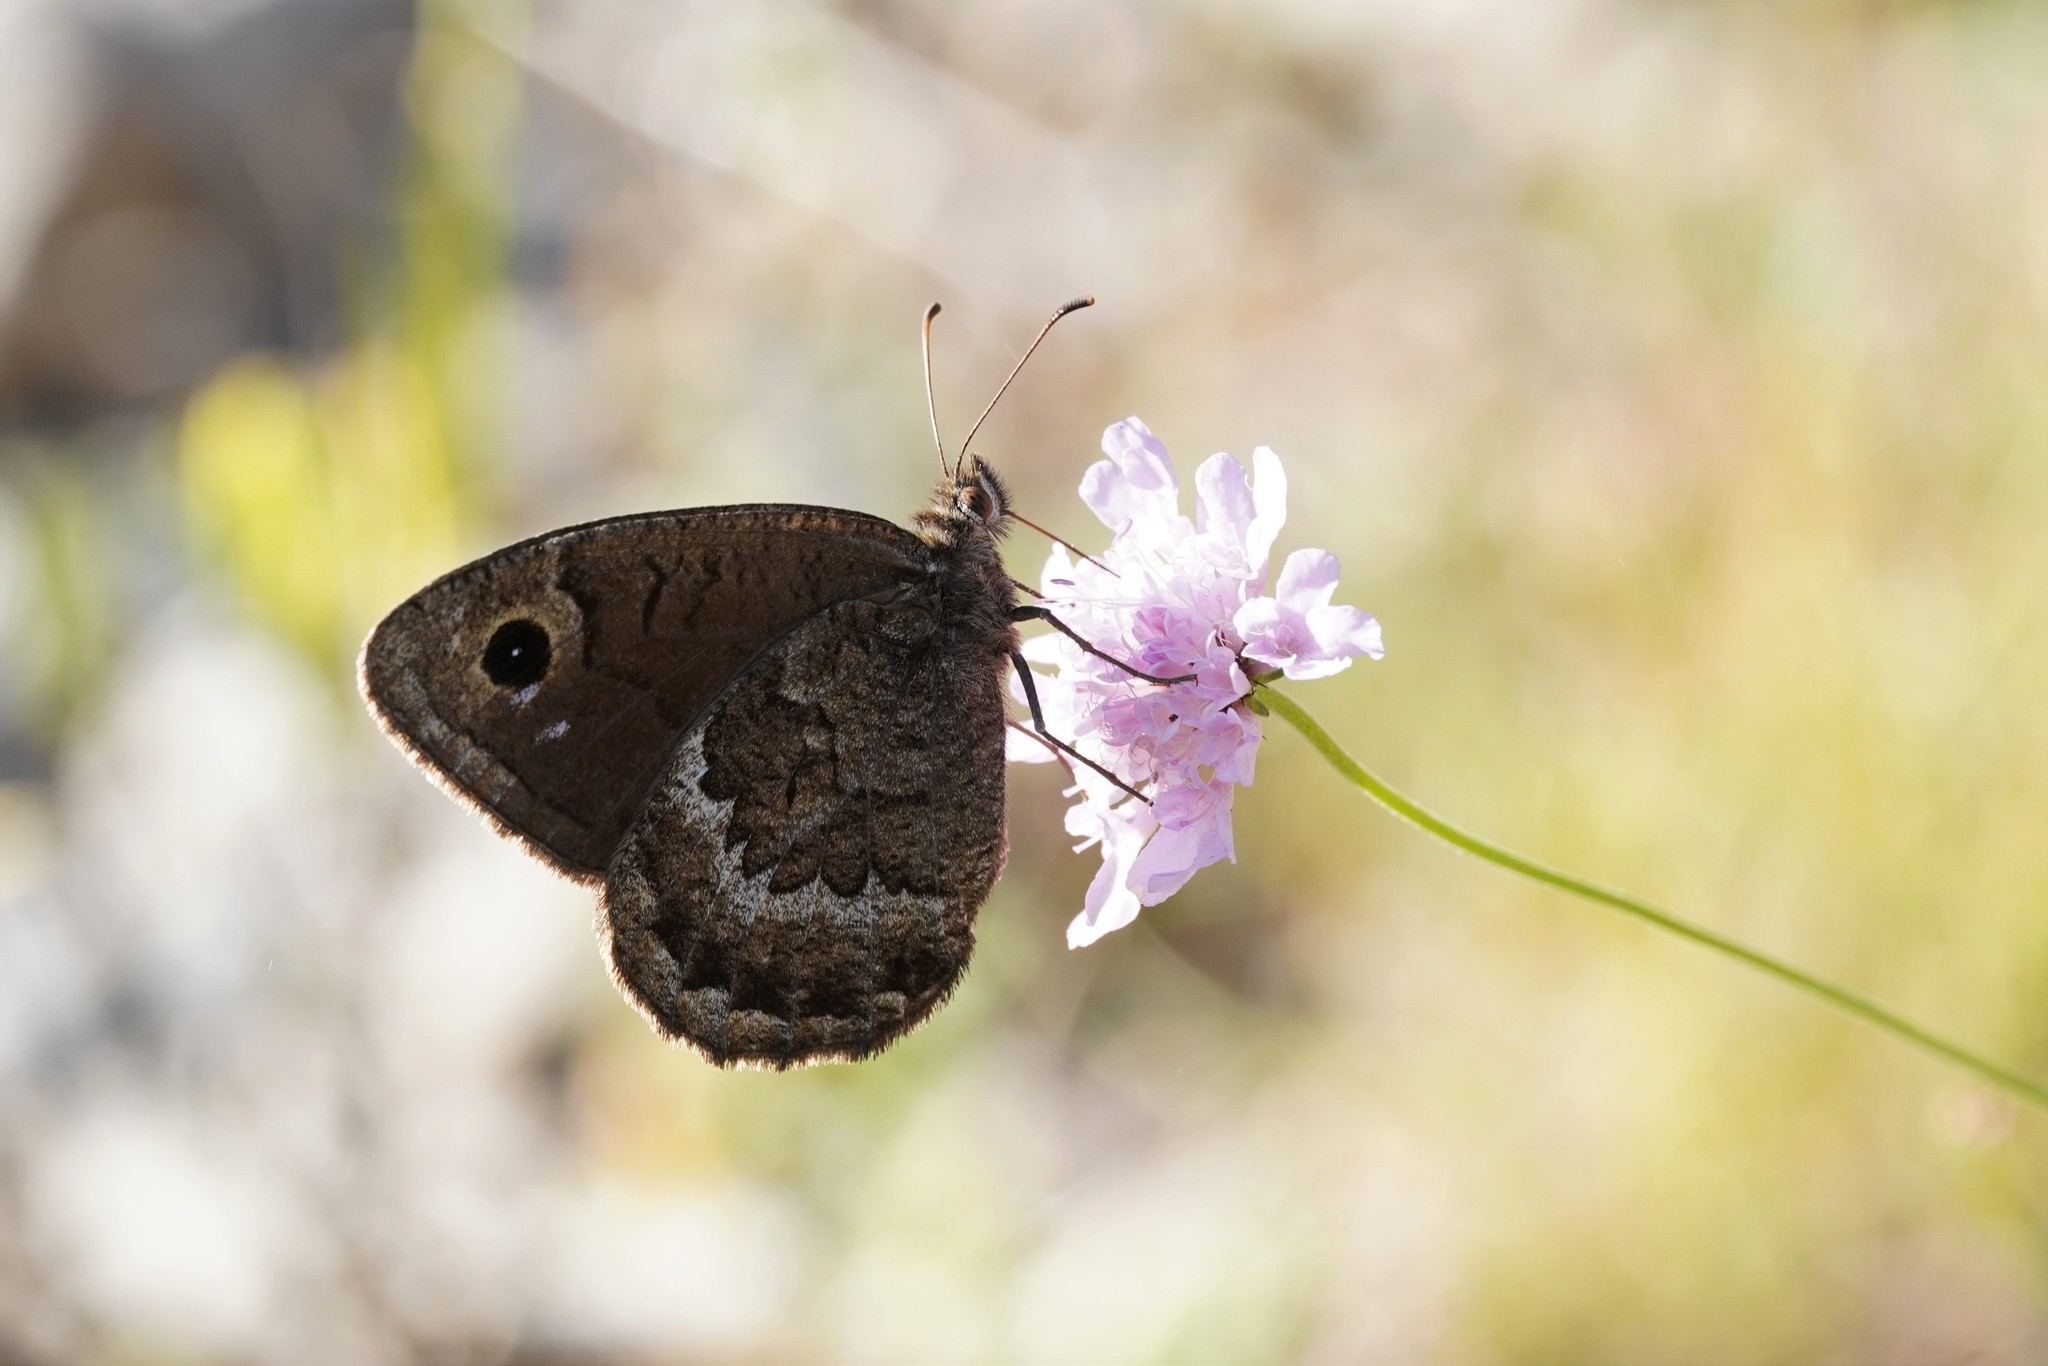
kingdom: Animalia
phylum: Arthropoda
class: Insecta
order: Lepidoptera
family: Nymphalidae
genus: Satyrus
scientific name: Satyrus actaea
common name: Black satyr
